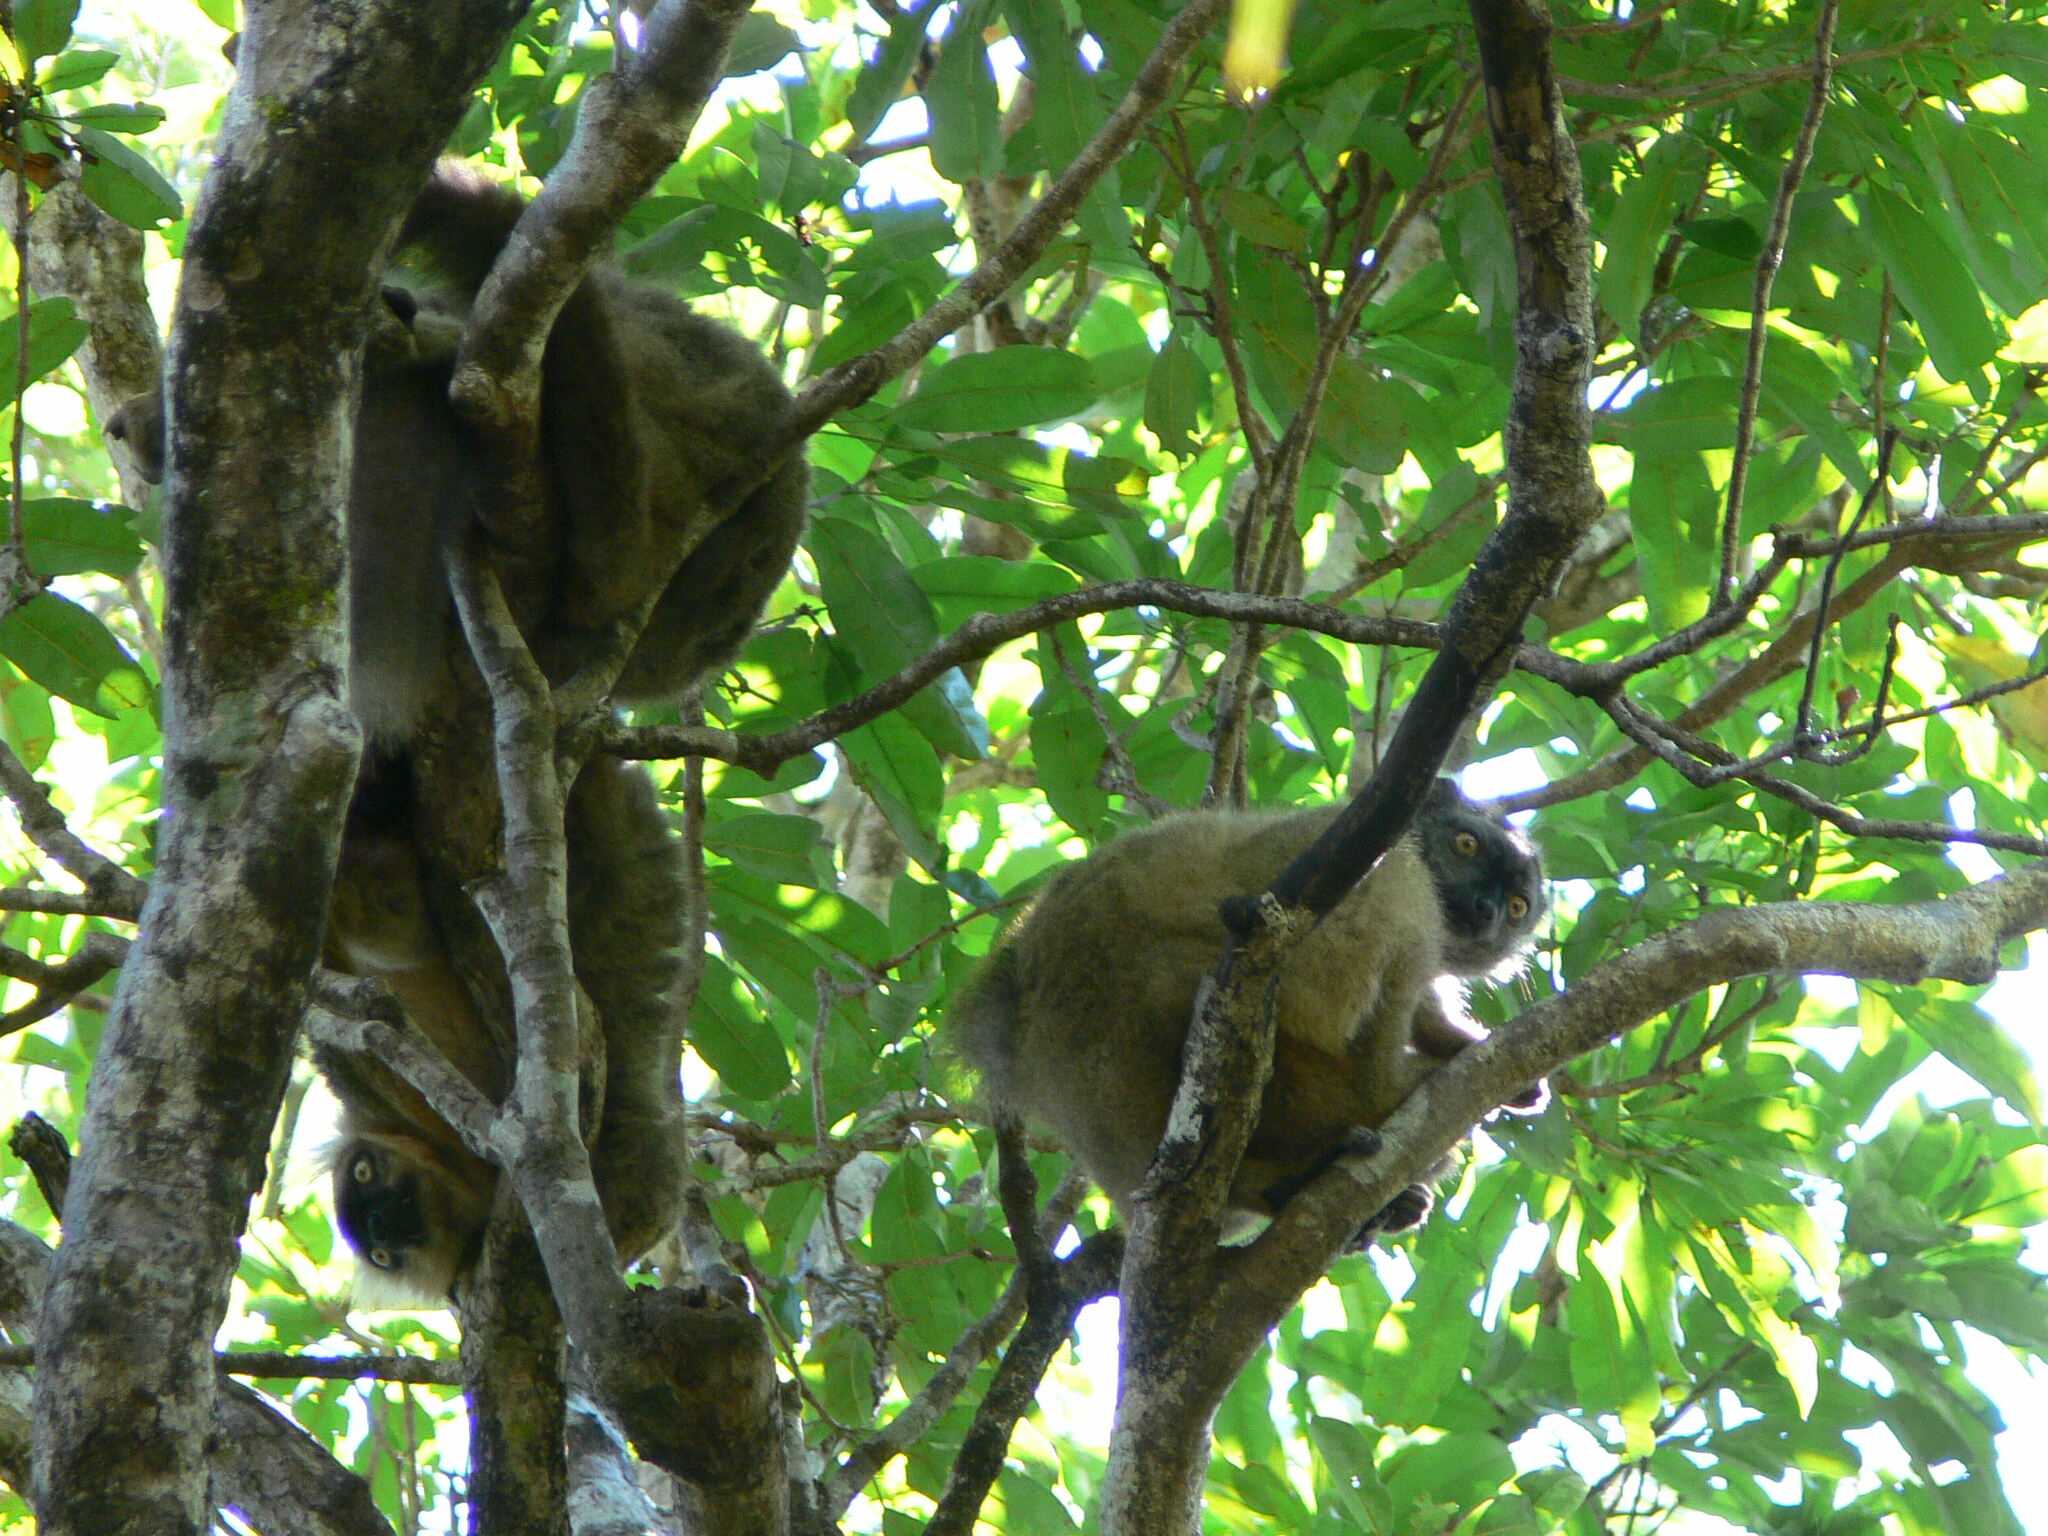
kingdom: Animalia
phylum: Chordata
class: Mammalia
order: Primates
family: Lemuridae
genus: Eulemur
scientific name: Eulemur sanfordi
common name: Sanford's brown lemur
